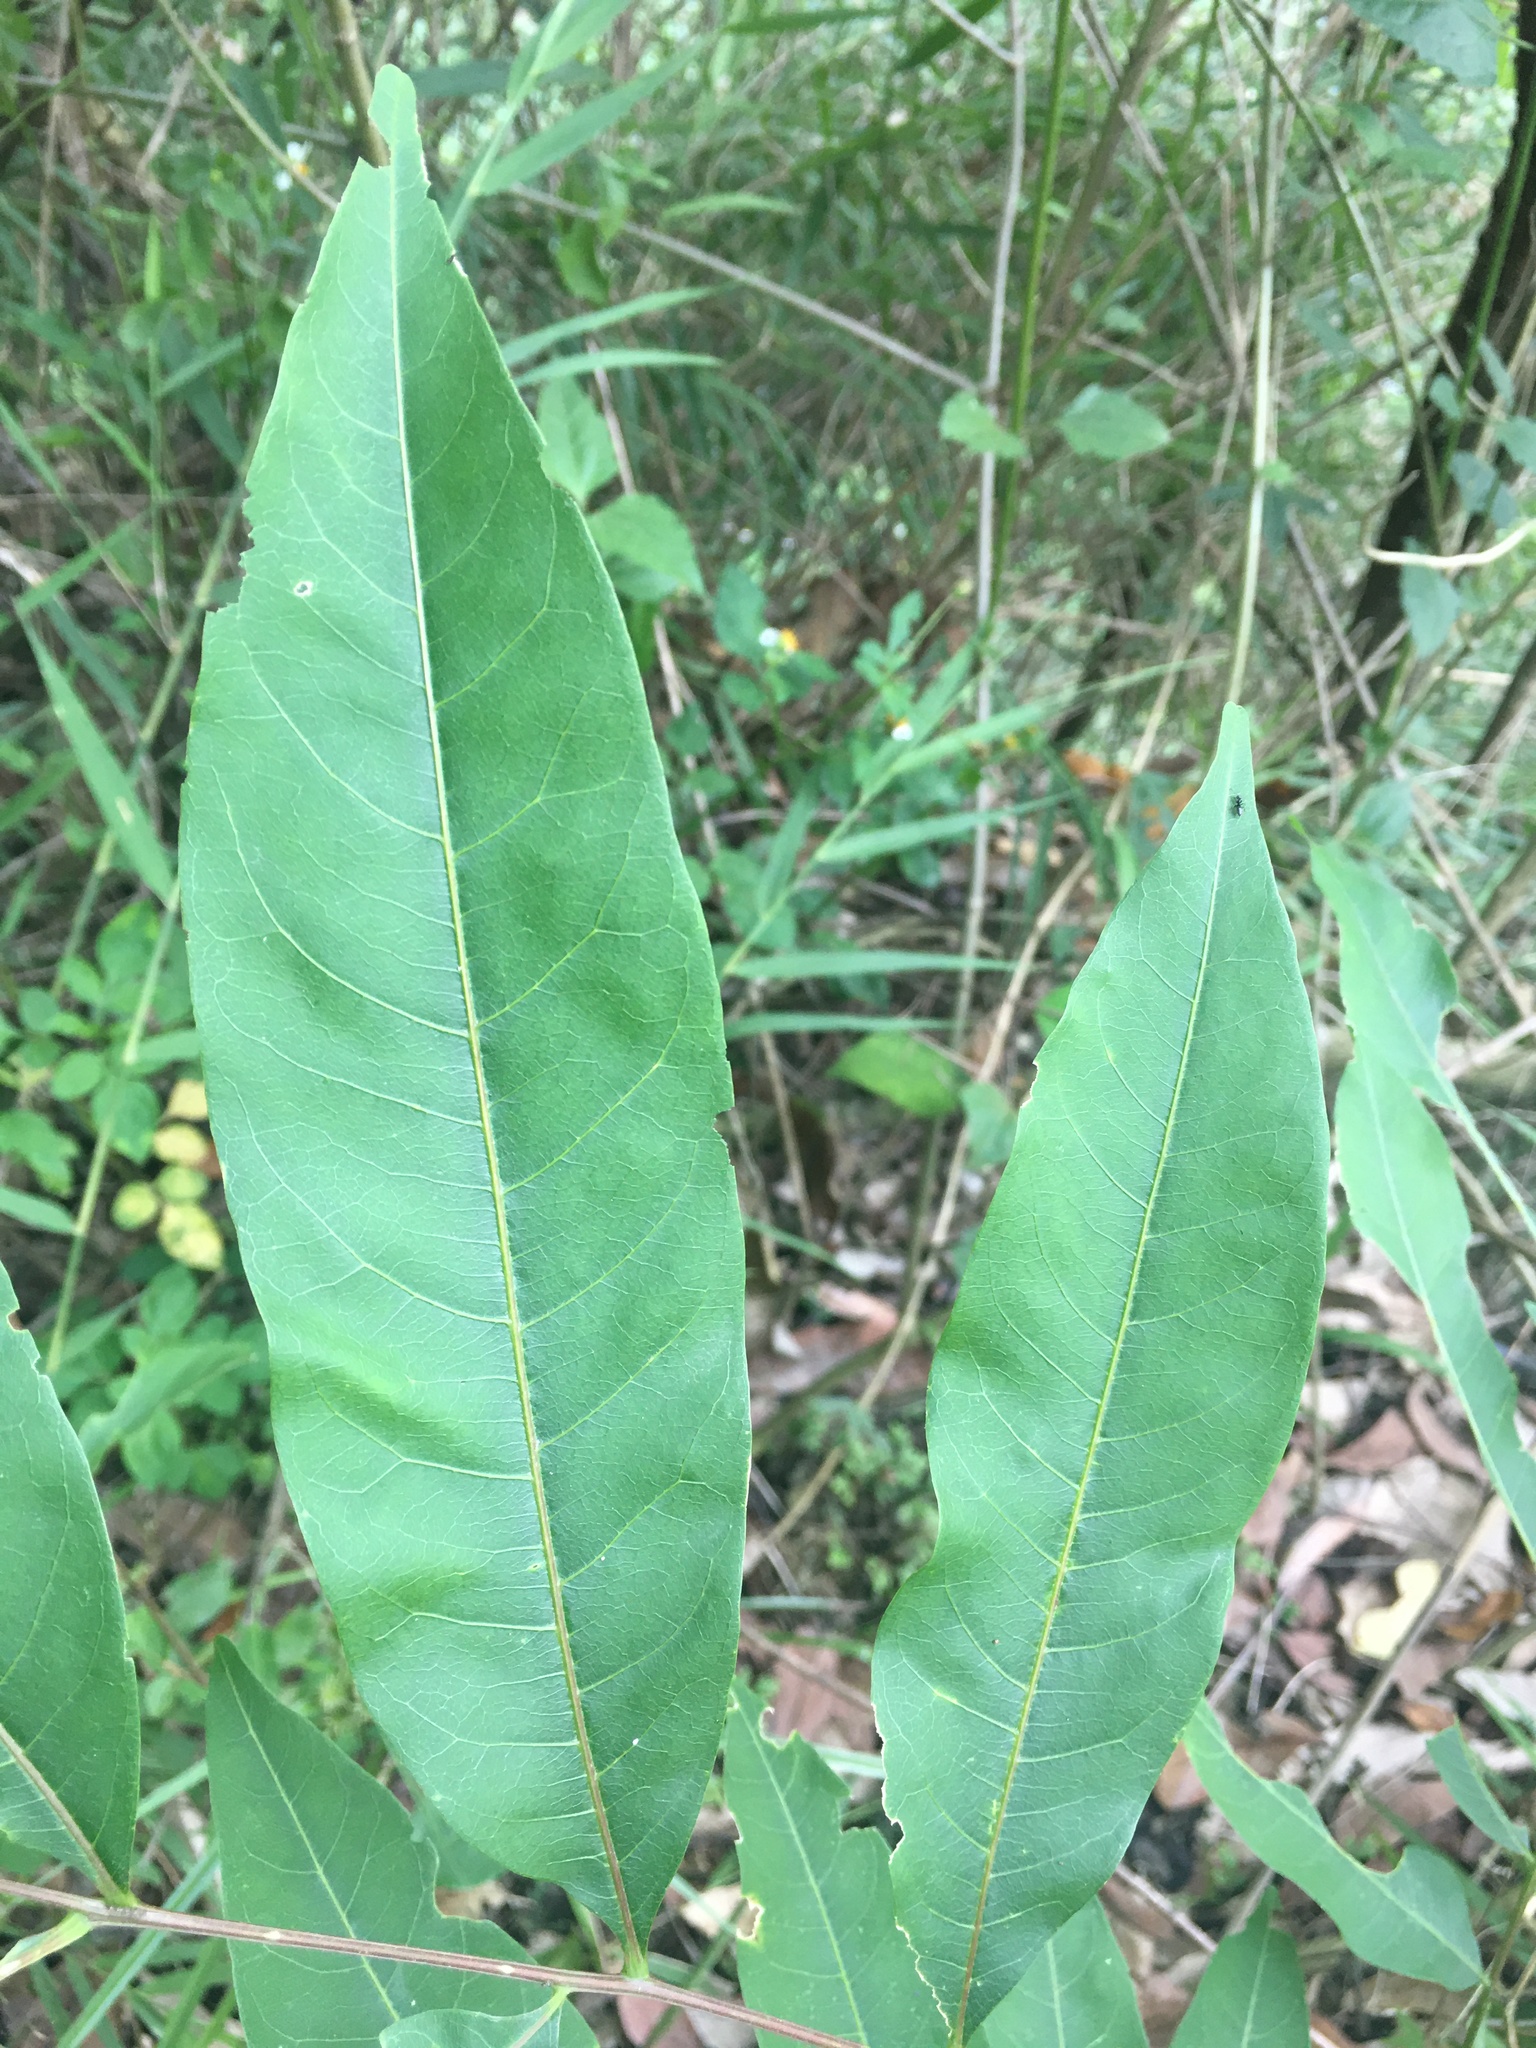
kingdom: Plantae
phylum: Tracheophyta
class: Magnoliopsida
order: Sapindales
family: Sapindaceae
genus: Sapindus
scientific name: Sapindus mukorossi
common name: Chinese soapberry
